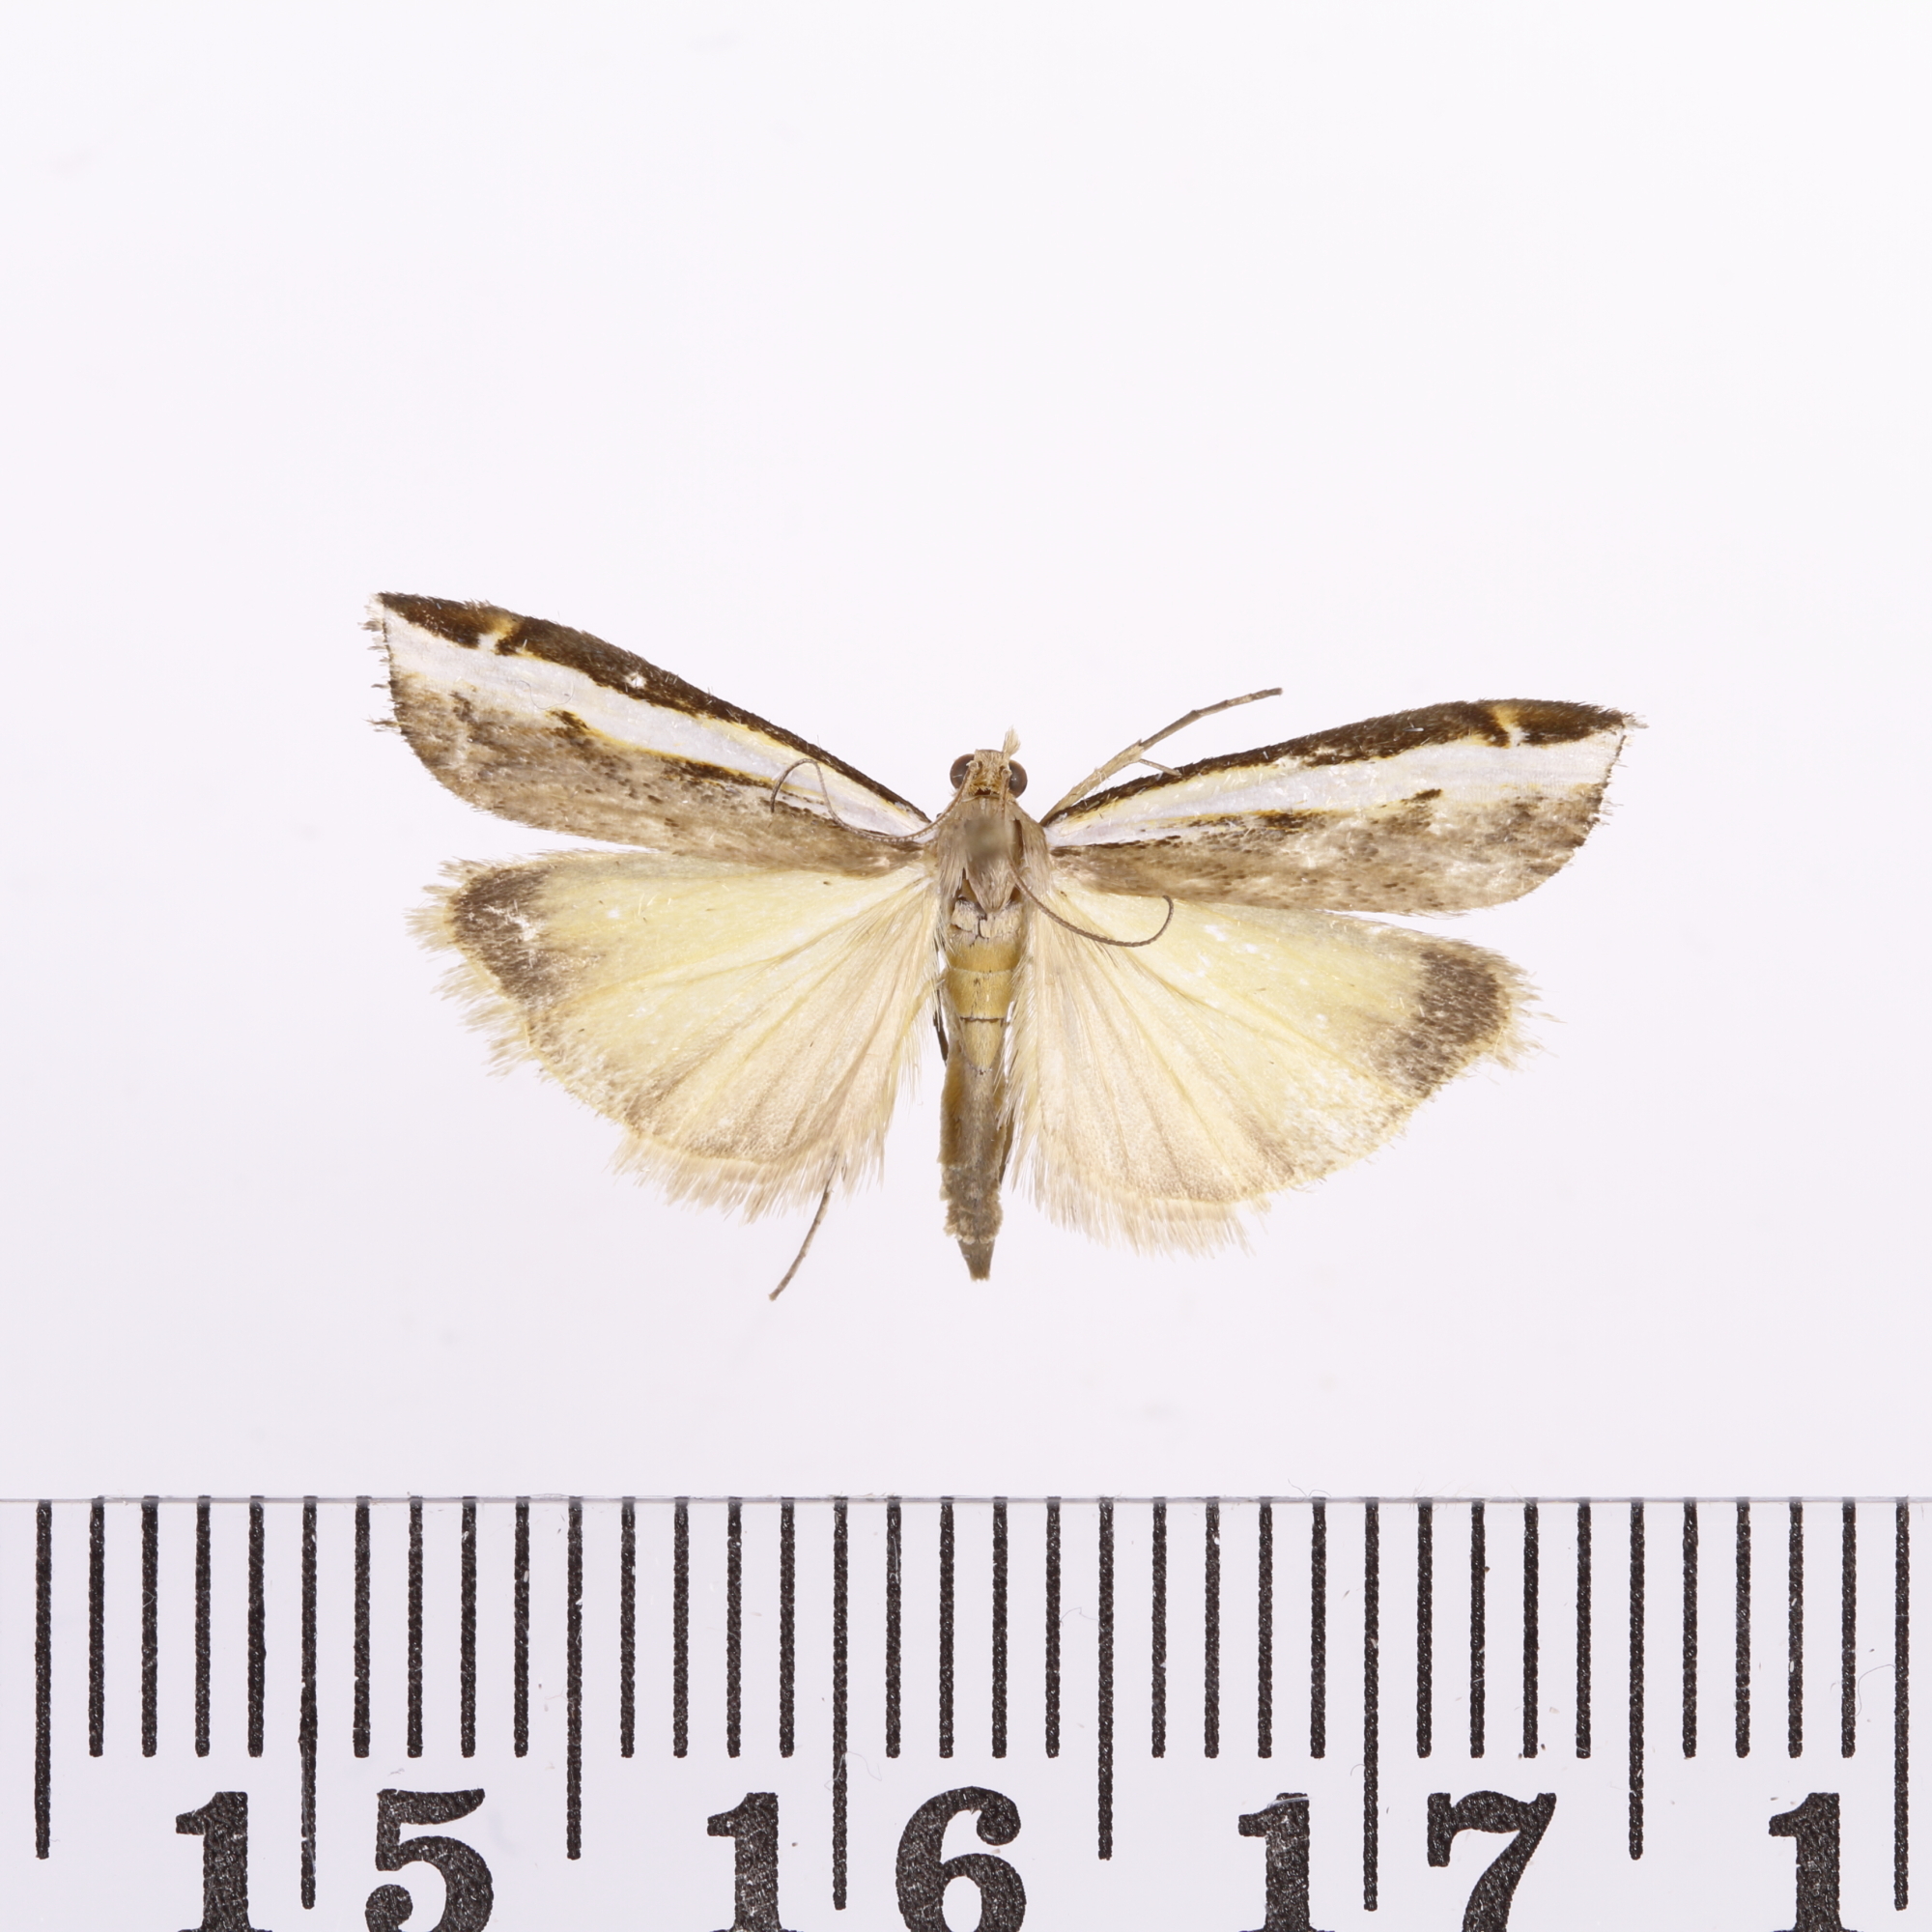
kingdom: Animalia
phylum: Arthropoda
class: Insecta
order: Lepidoptera
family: Crambidae
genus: Orocrambus
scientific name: Orocrambus flexuosellus
